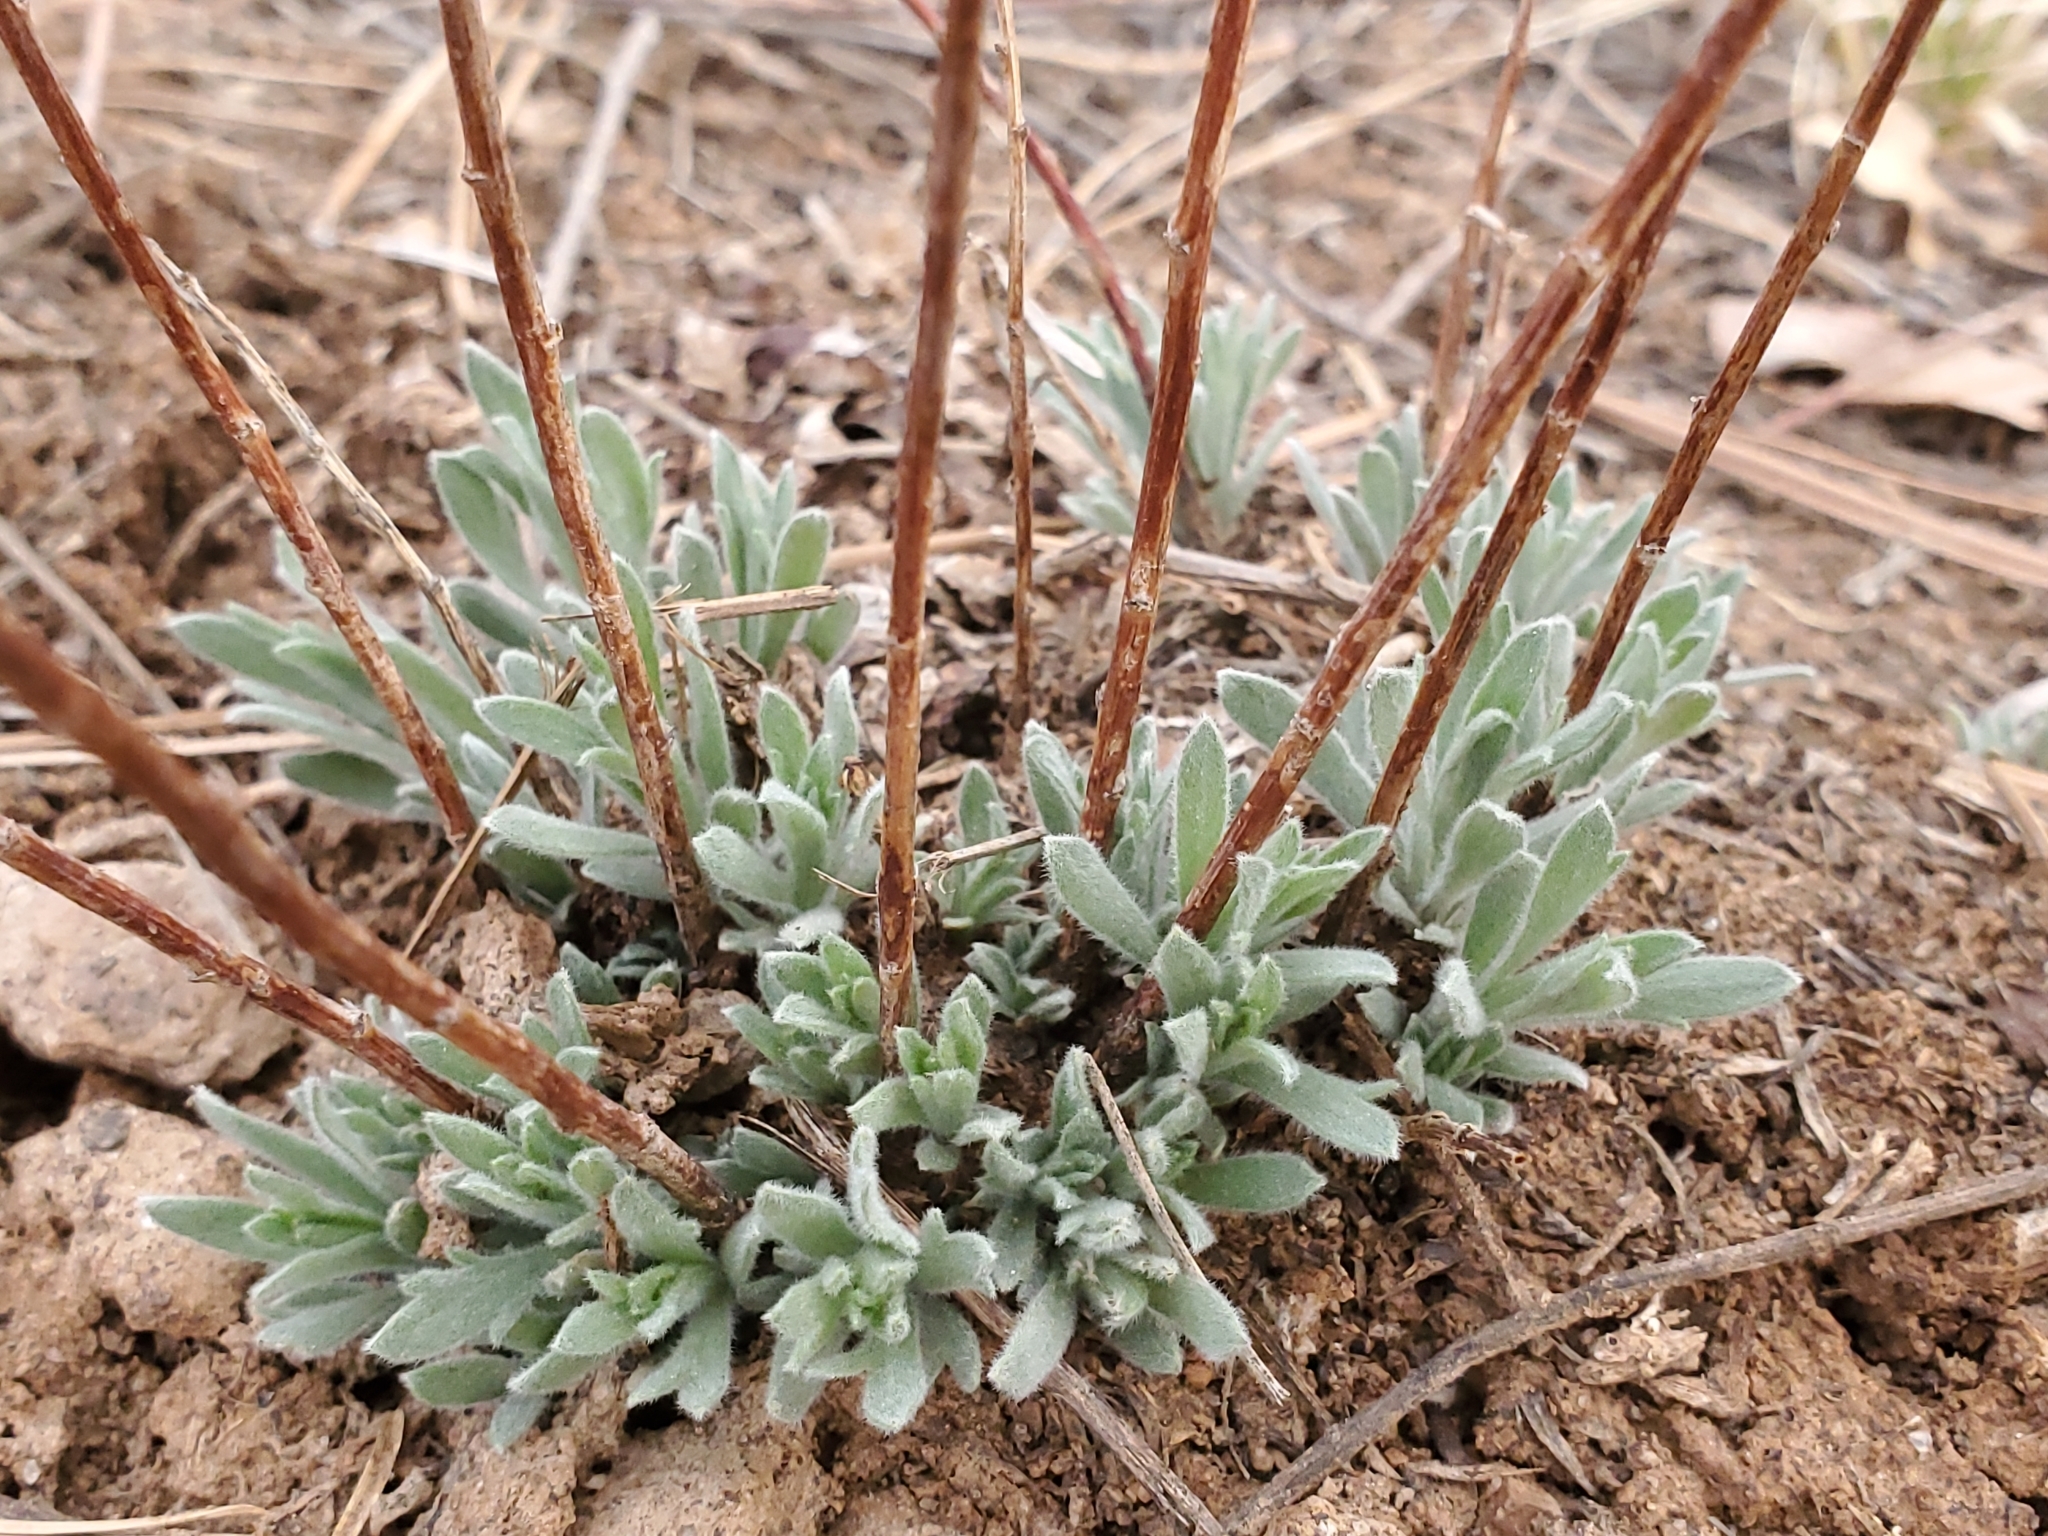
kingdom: Plantae
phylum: Tracheophyta
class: Magnoliopsida
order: Asterales
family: Asteraceae
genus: Artemisia
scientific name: Artemisia dracunculus
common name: Tarragon
